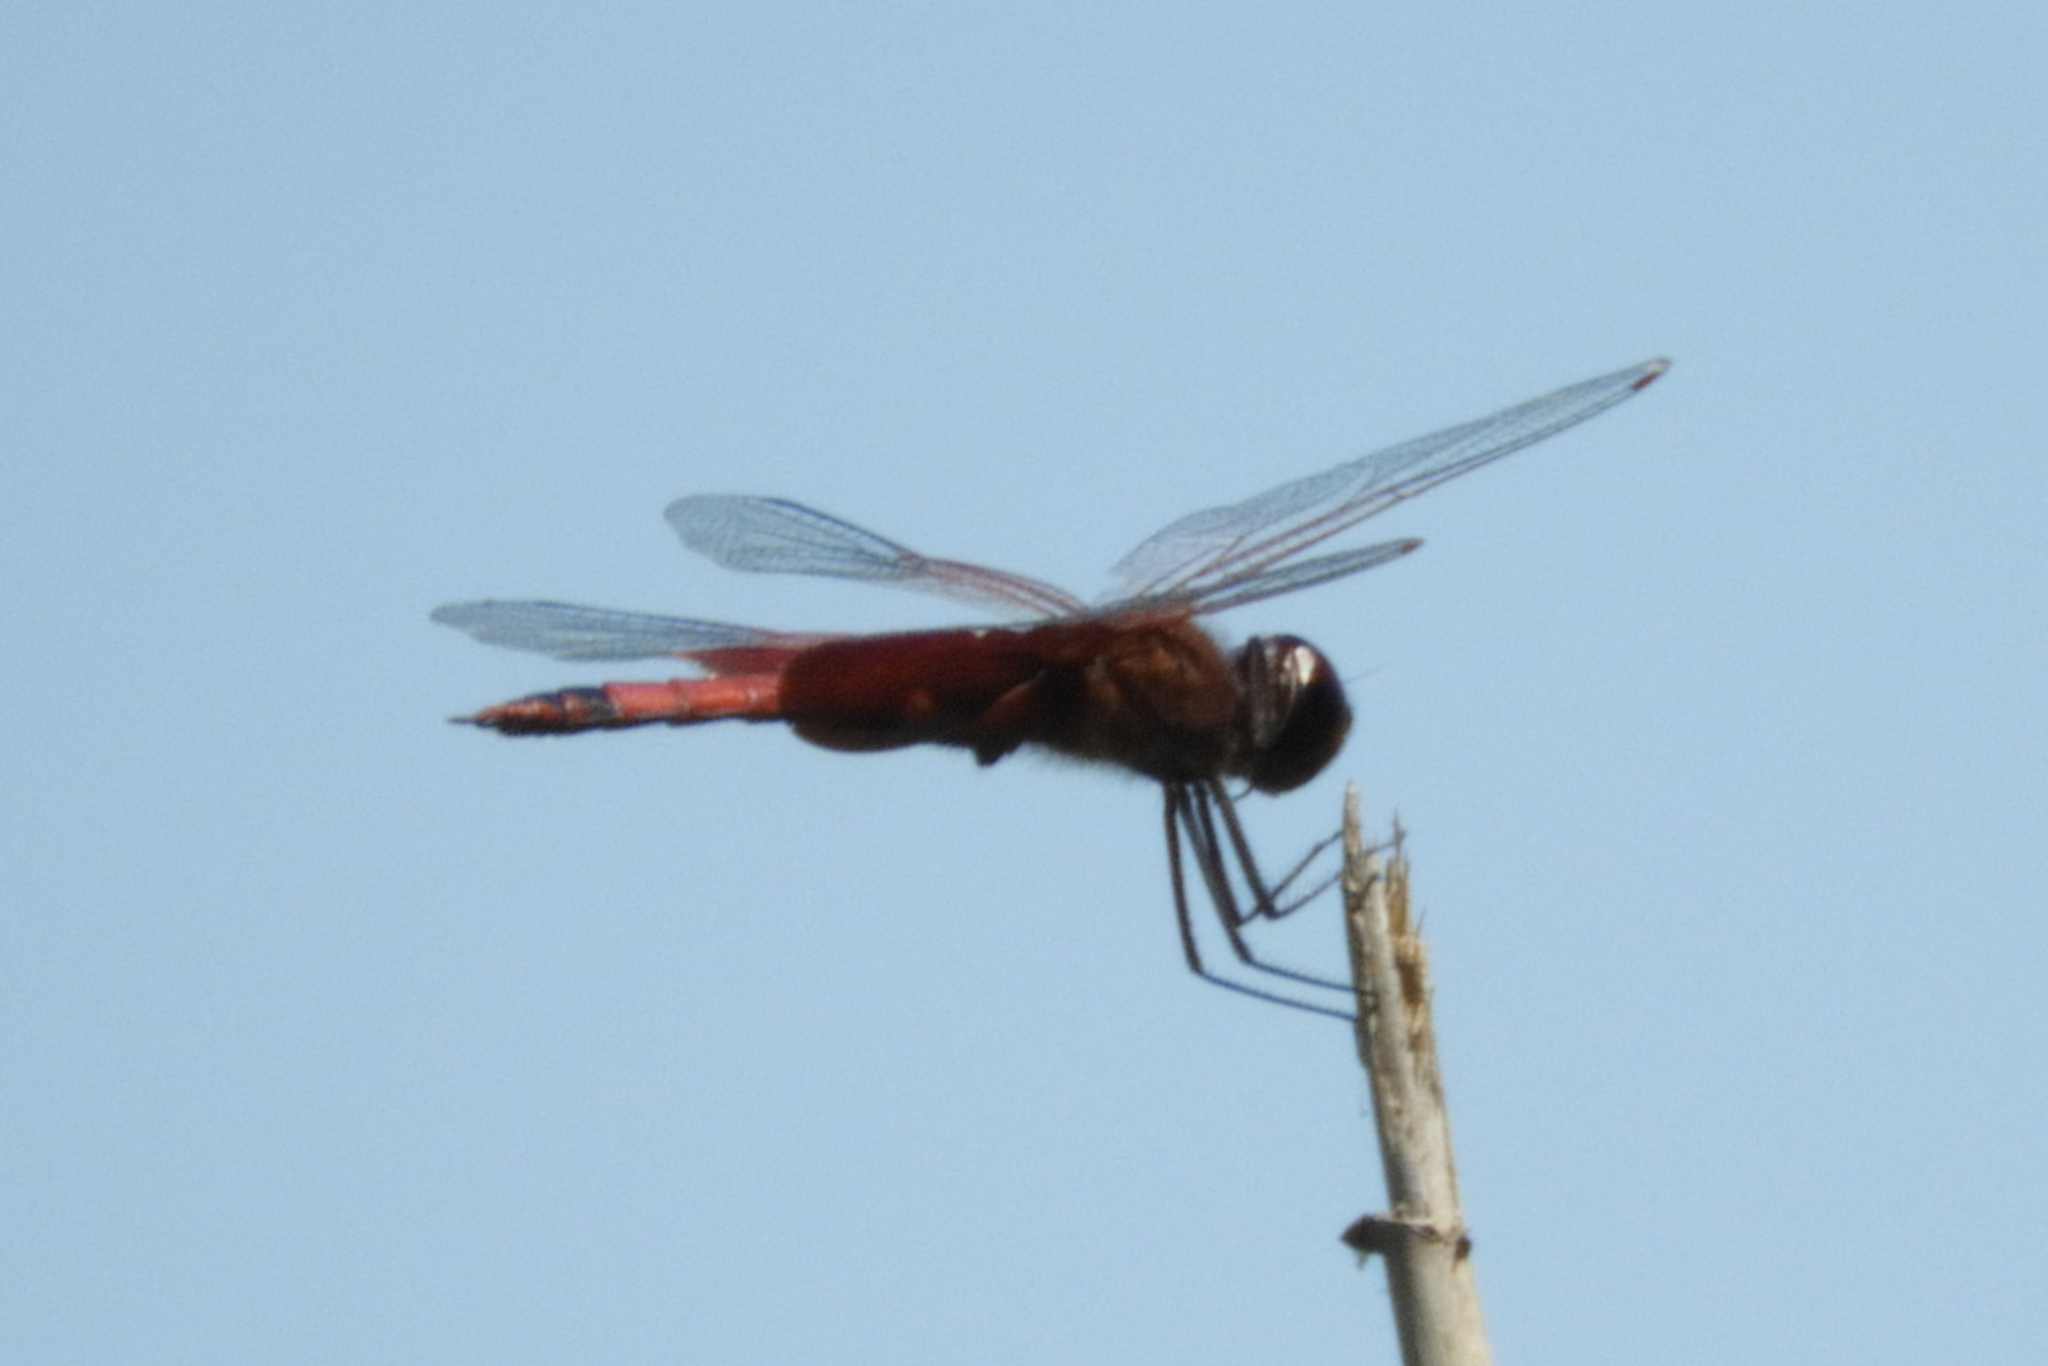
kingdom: Animalia
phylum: Arthropoda
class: Insecta
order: Odonata
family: Libellulidae
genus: Tramea
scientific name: Tramea carolina
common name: Carolina saddlebags
